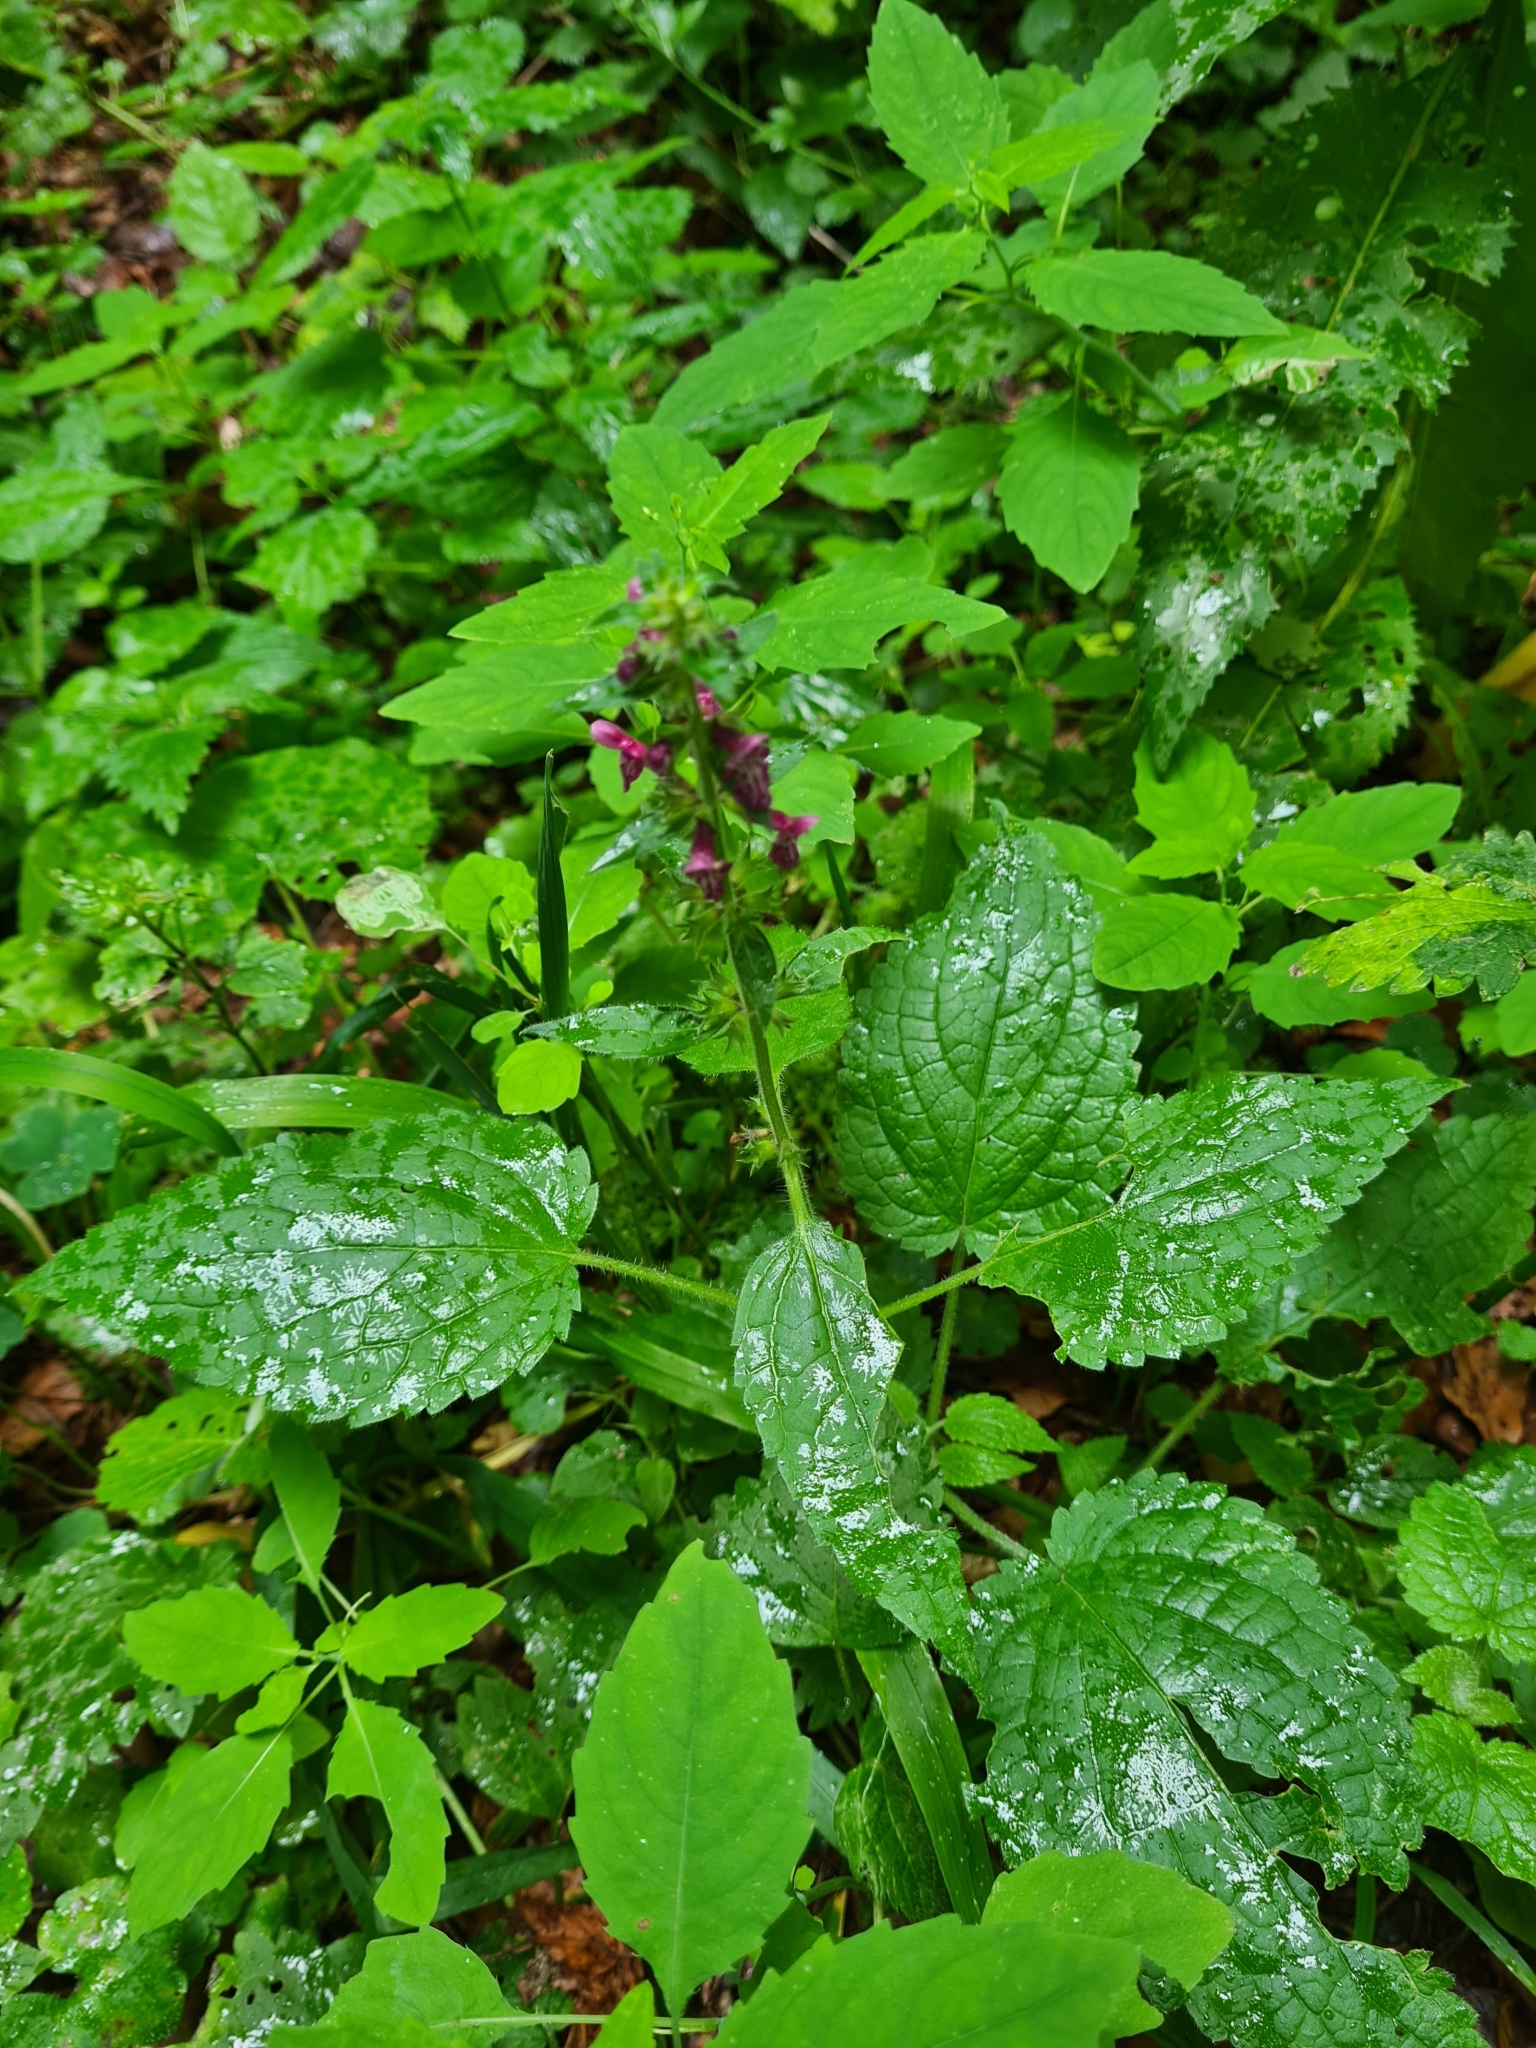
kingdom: Plantae
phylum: Tracheophyta
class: Magnoliopsida
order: Lamiales
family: Lamiaceae
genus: Stachys
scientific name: Stachys sylvatica
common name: Hedge woundwort
